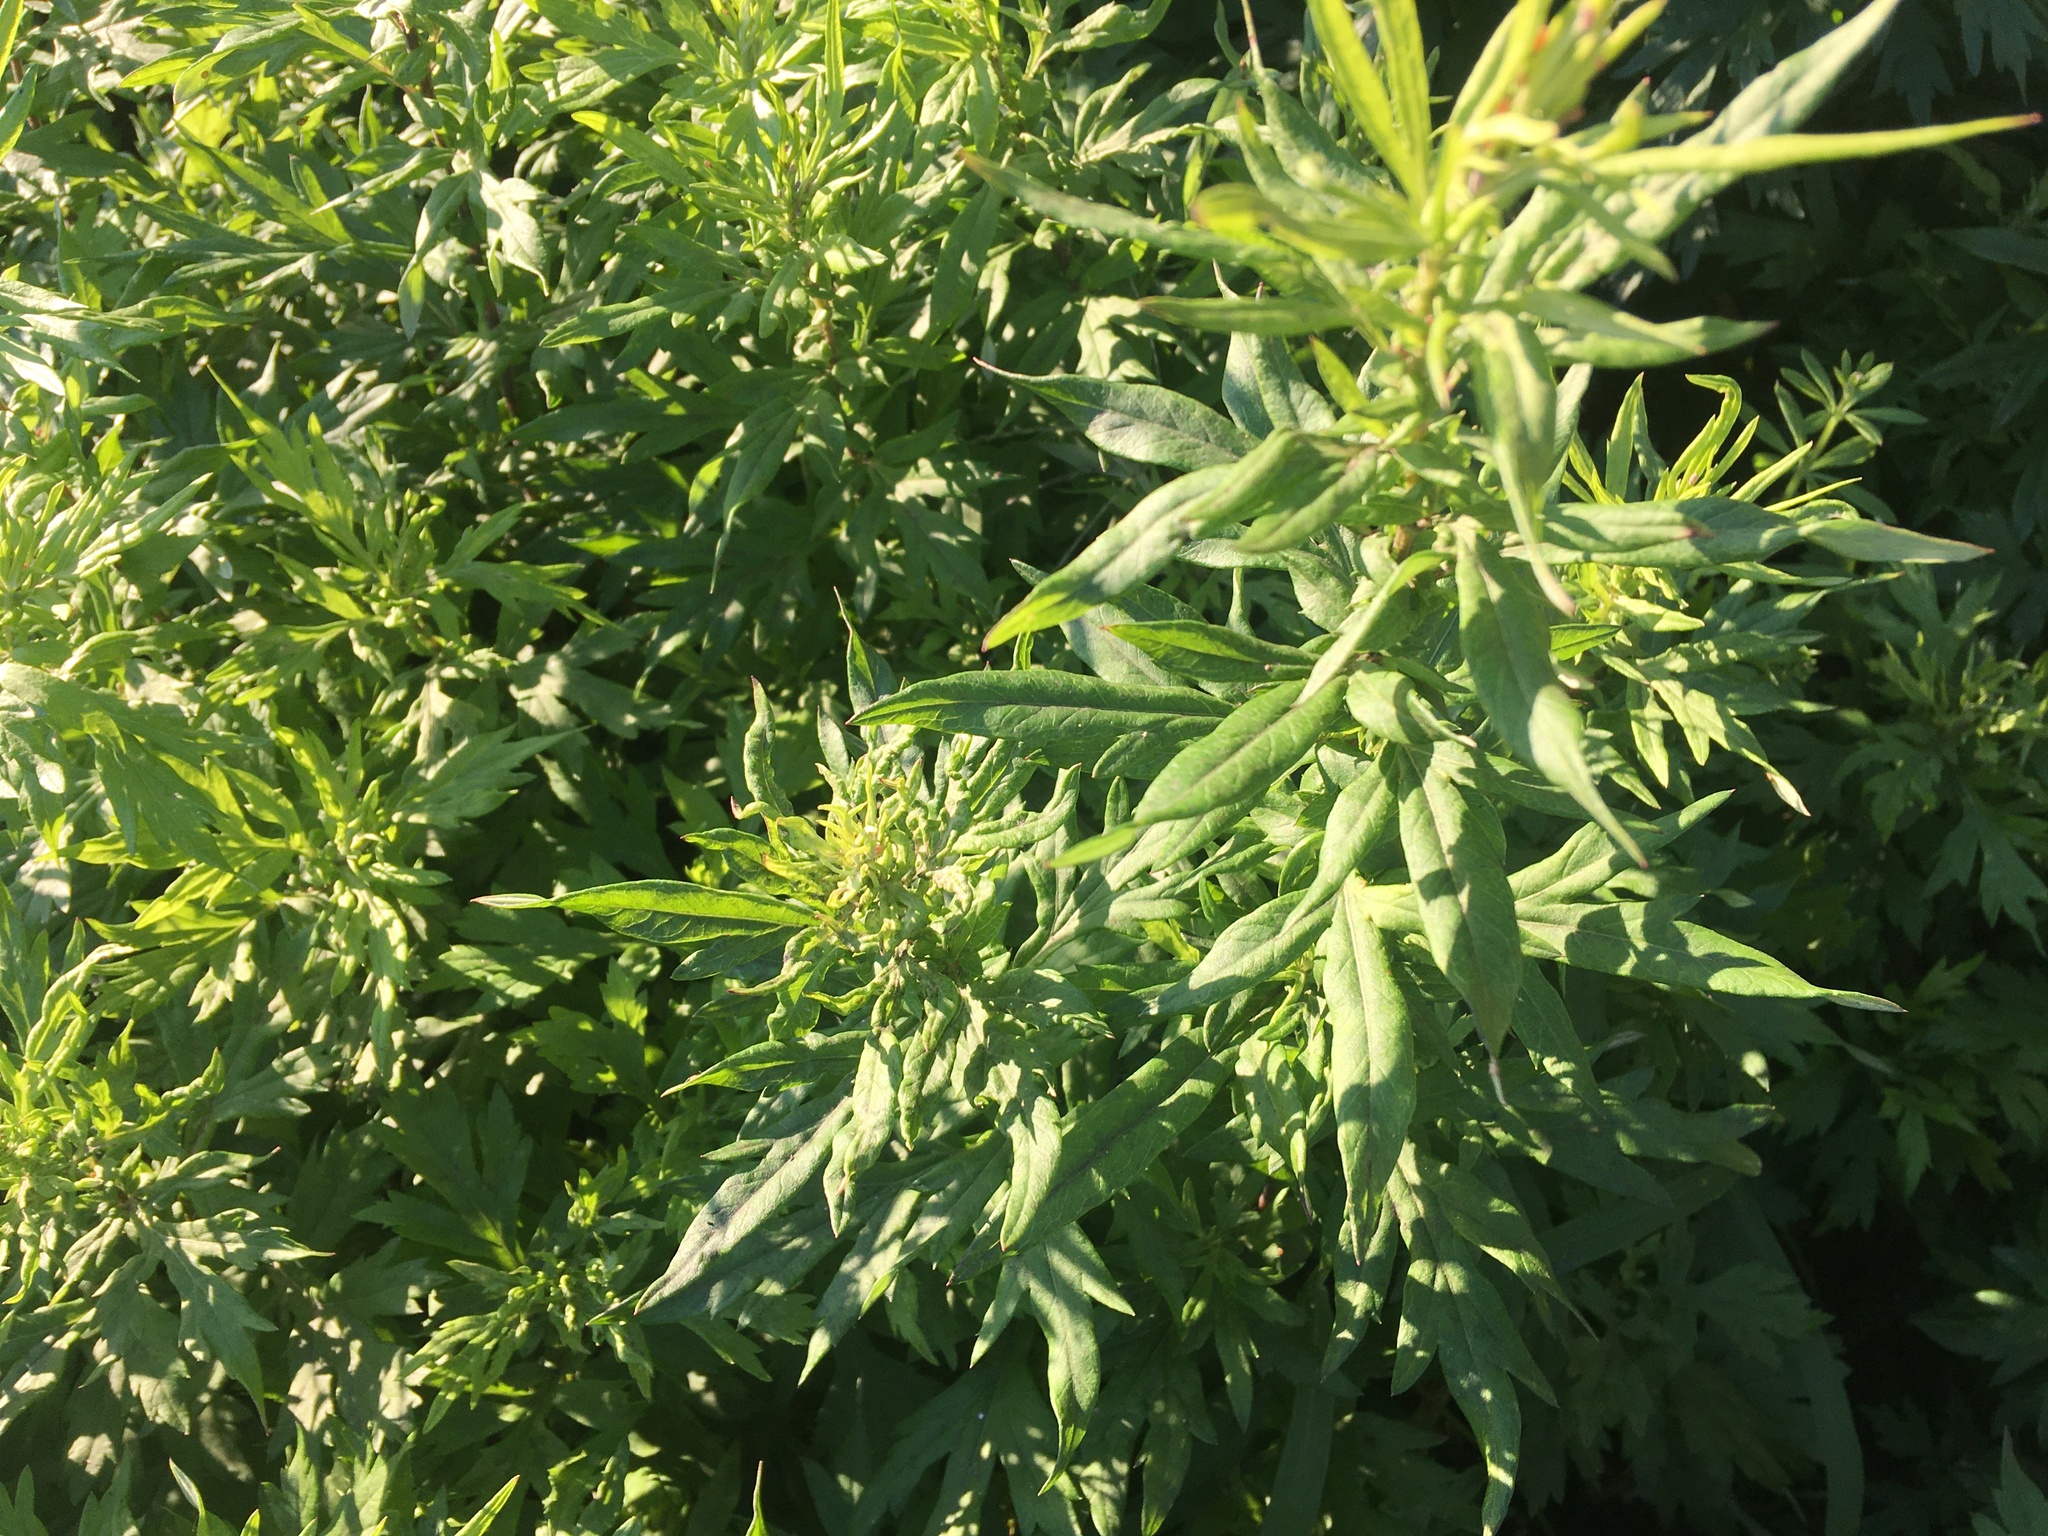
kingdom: Plantae
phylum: Tracheophyta
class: Magnoliopsida
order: Asterales
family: Asteraceae
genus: Artemisia
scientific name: Artemisia vulgaris
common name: Mugwort
